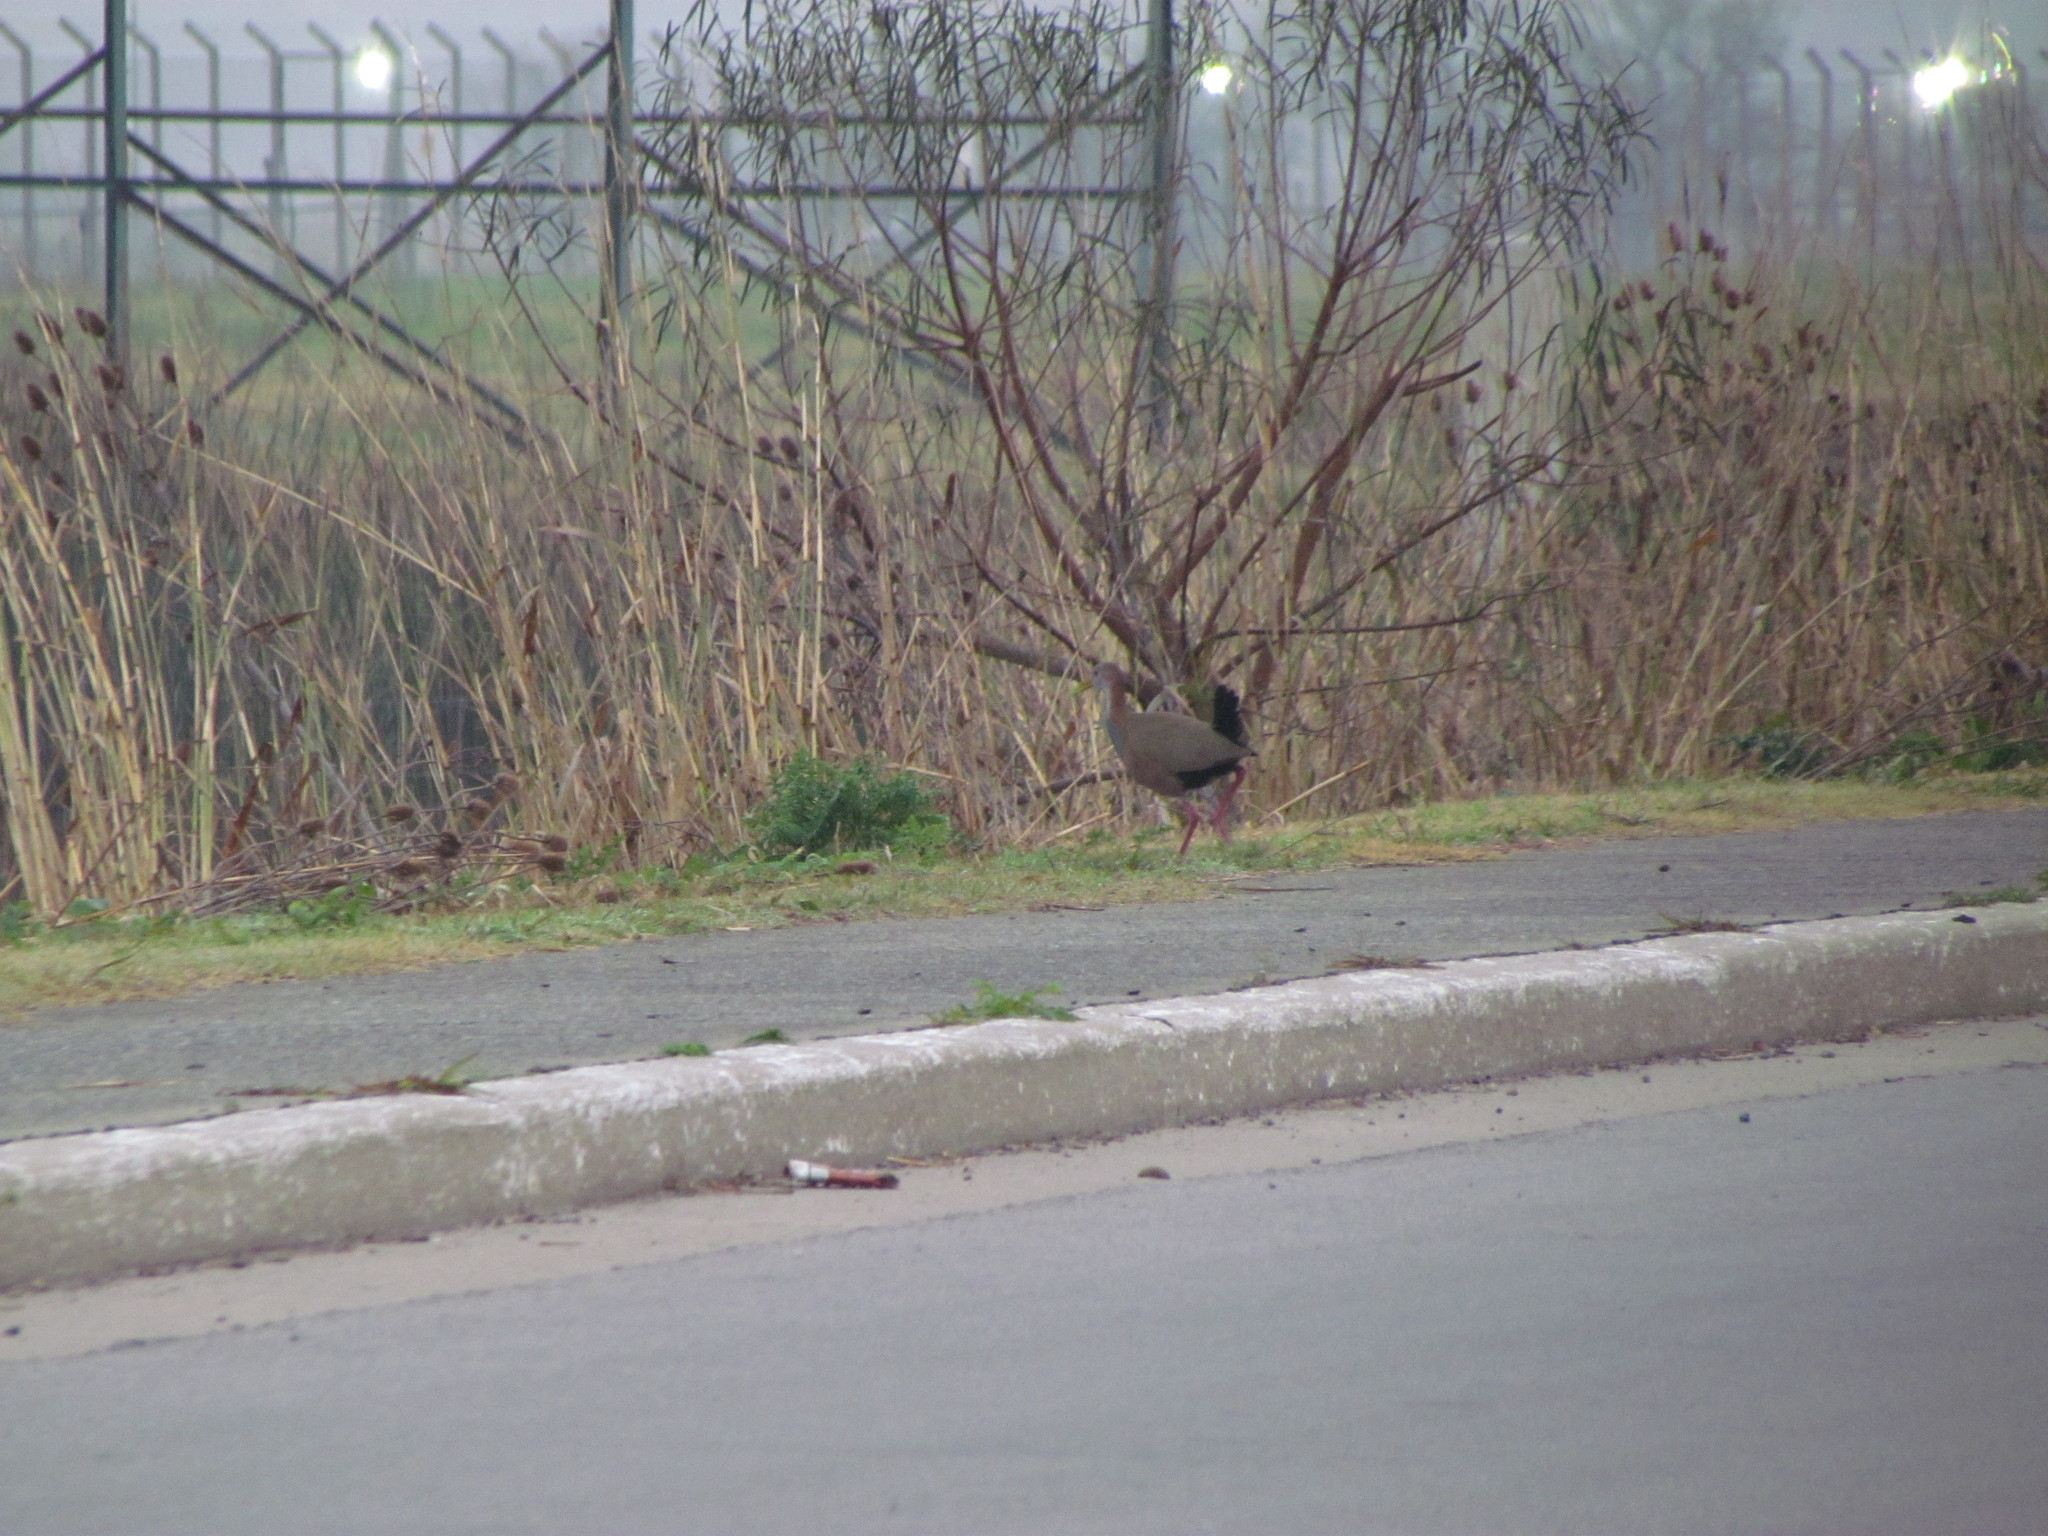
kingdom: Animalia
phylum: Chordata
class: Aves
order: Gruiformes
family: Rallidae
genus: Aramides
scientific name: Aramides ypecaha
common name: Giant wood rail
